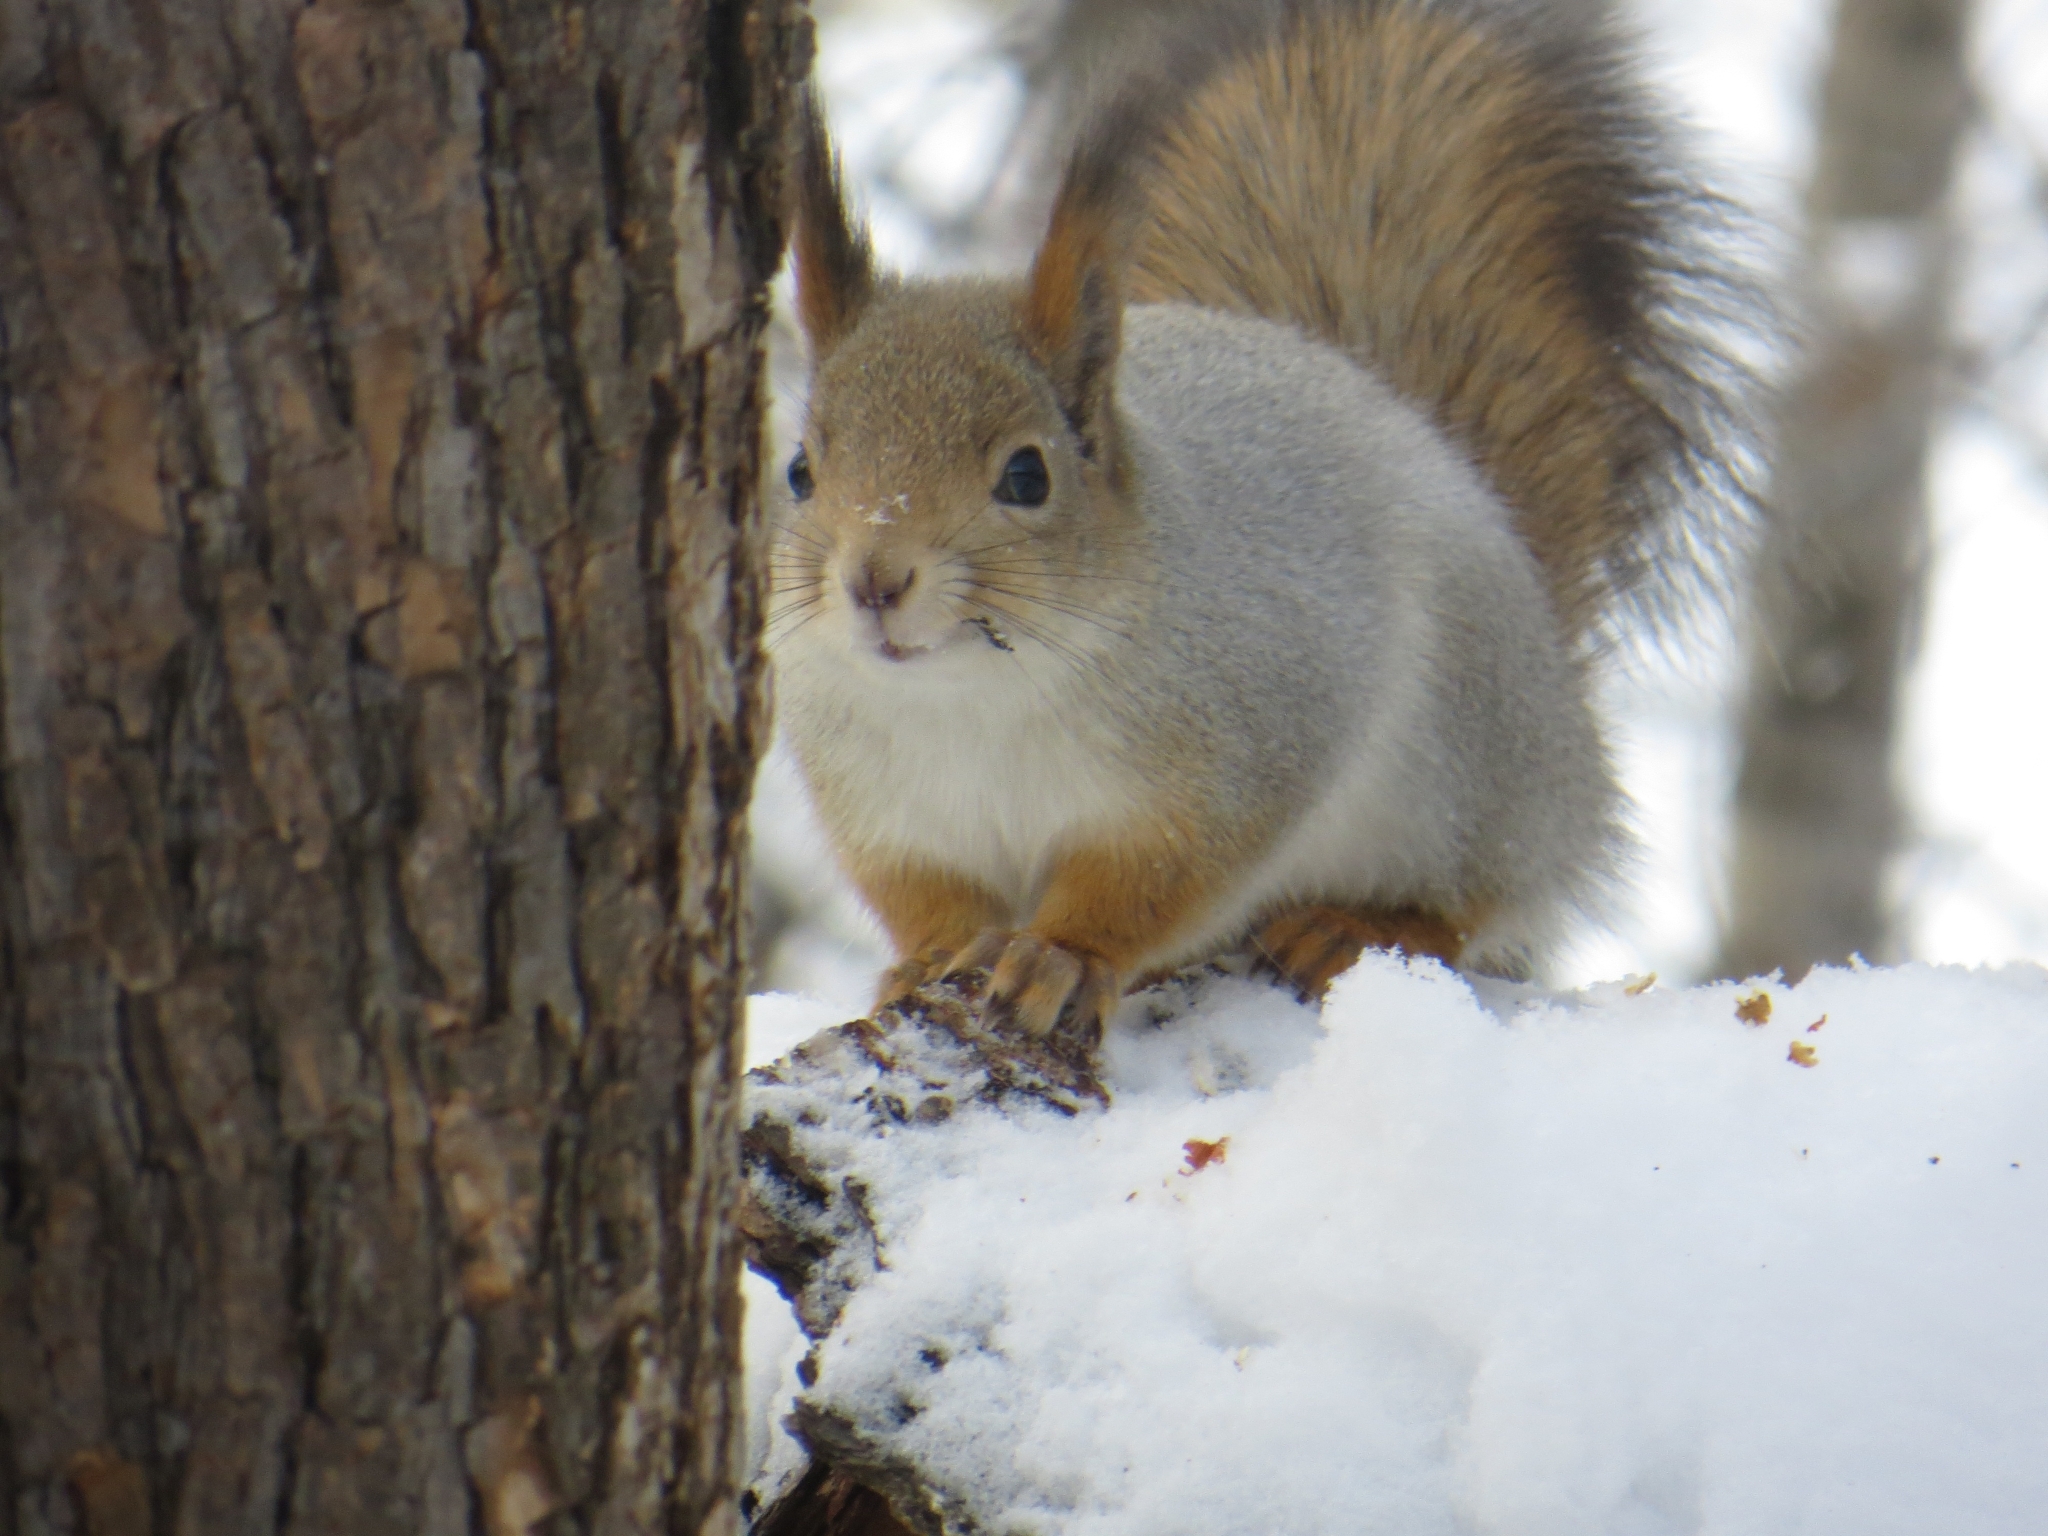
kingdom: Animalia
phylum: Chordata
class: Mammalia
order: Rodentia
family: Sciuridae
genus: Sciurus
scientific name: Sciurus vulgaris
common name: Eurasian red squirrel
